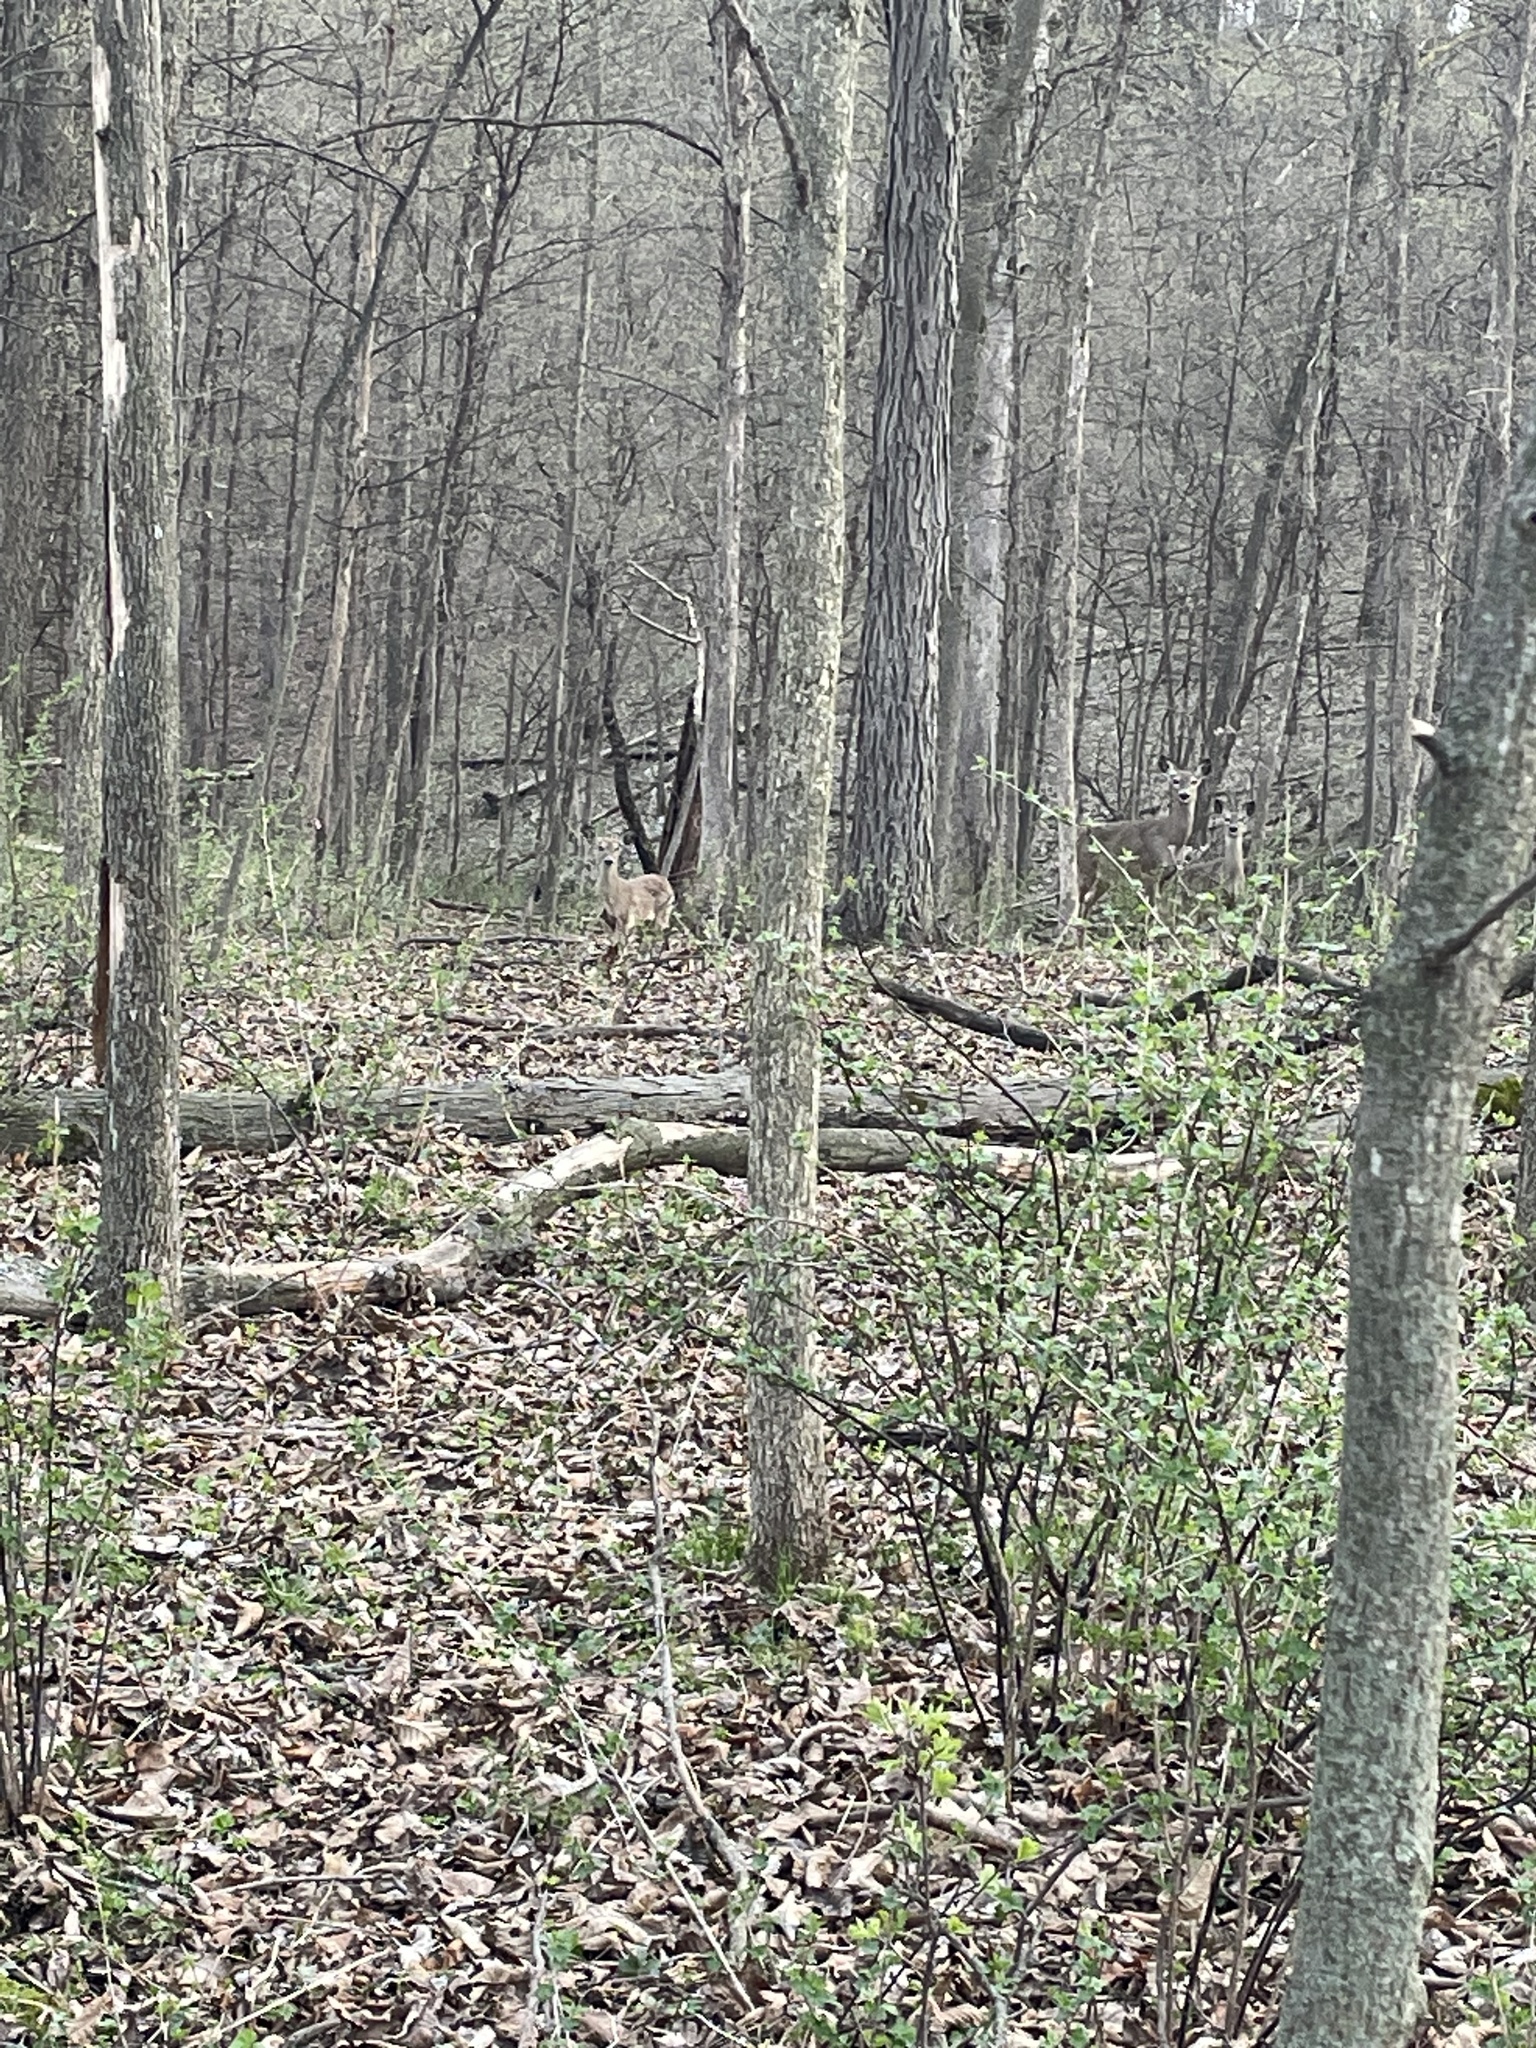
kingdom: Animalia
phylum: Chordata
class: Mammalia
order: Artiodactyla
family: Cervidae
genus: Odocoileus
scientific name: Odocoileus virginianus
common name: White-tailed deer
